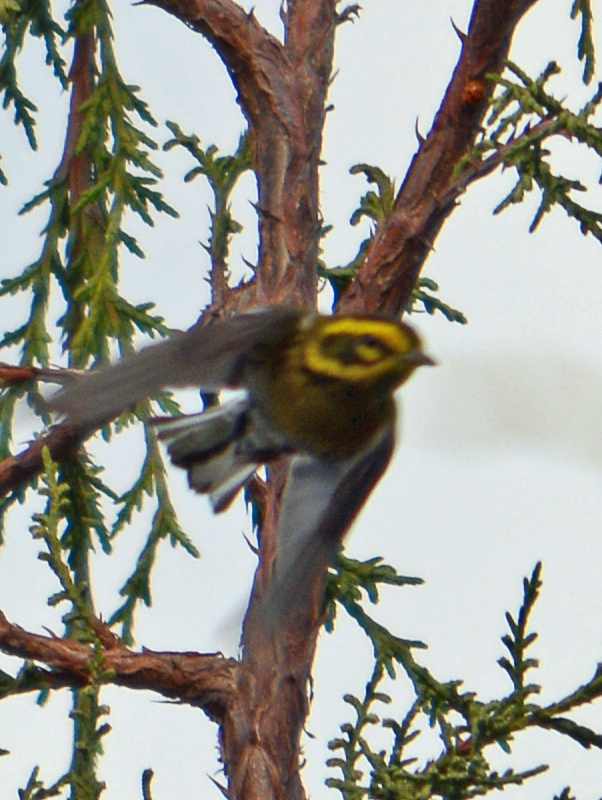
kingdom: Animalia
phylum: Chordata
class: Aves
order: Passeriformes
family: Parulidae
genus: Setophaga
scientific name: Setophaga townsendi
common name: Townsend's warbler
